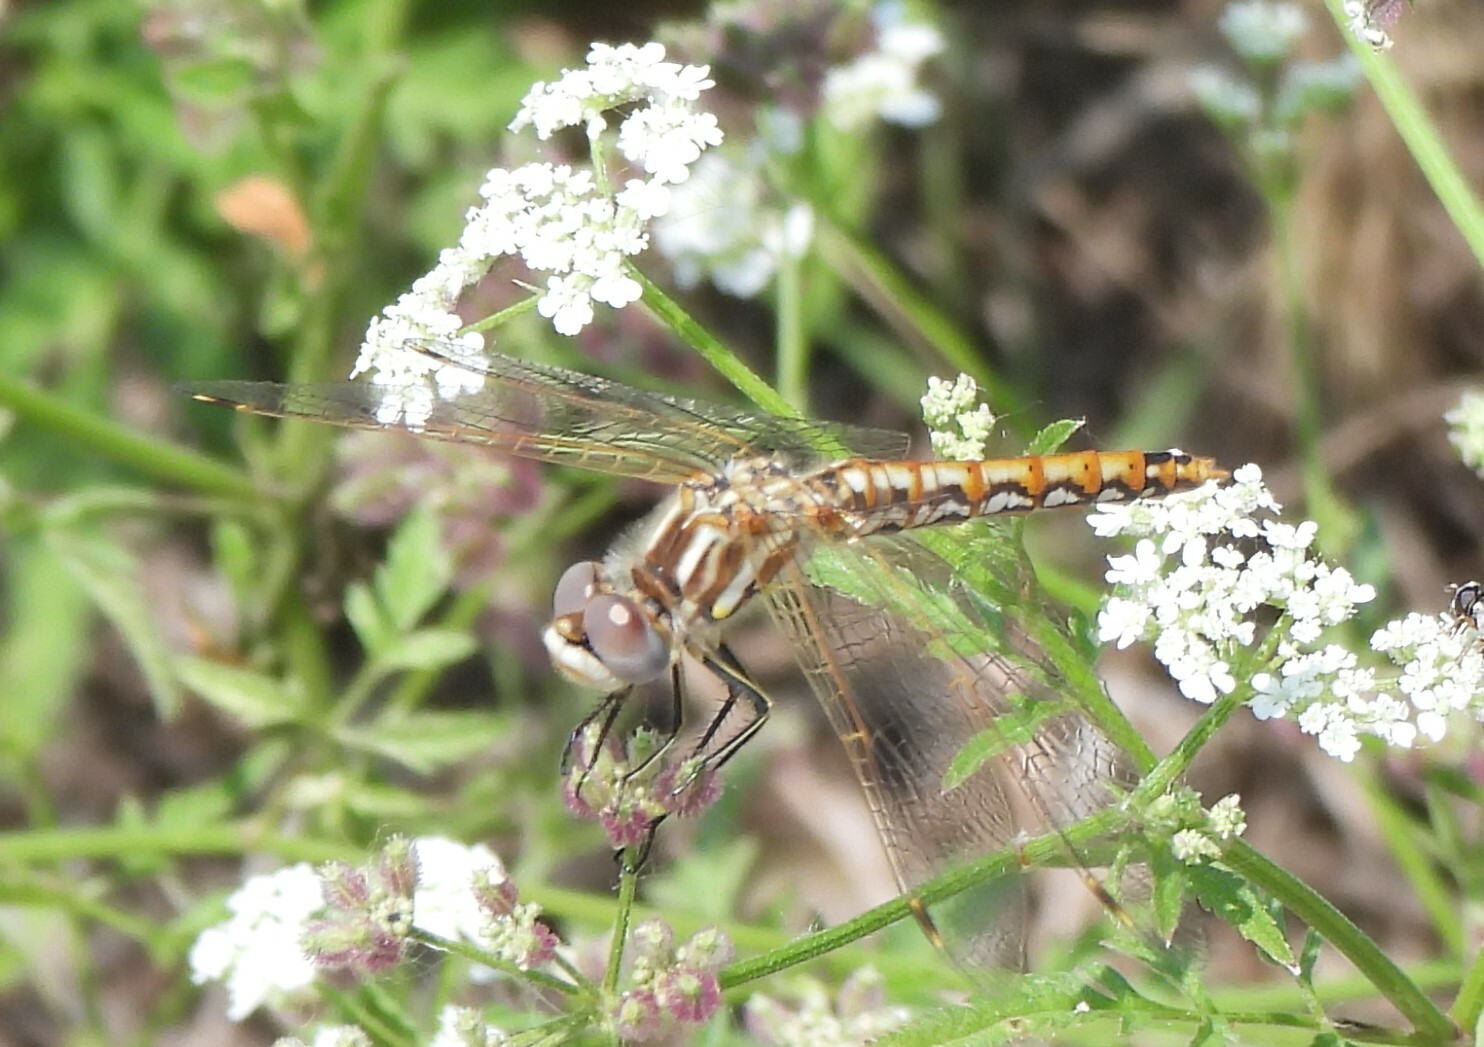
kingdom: Animalia
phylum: Arthropoda
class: Insecta
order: Odonata
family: Libellulidae
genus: Sympetrum
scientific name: Sympetrum corruptum
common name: Variegated meadowhawk
